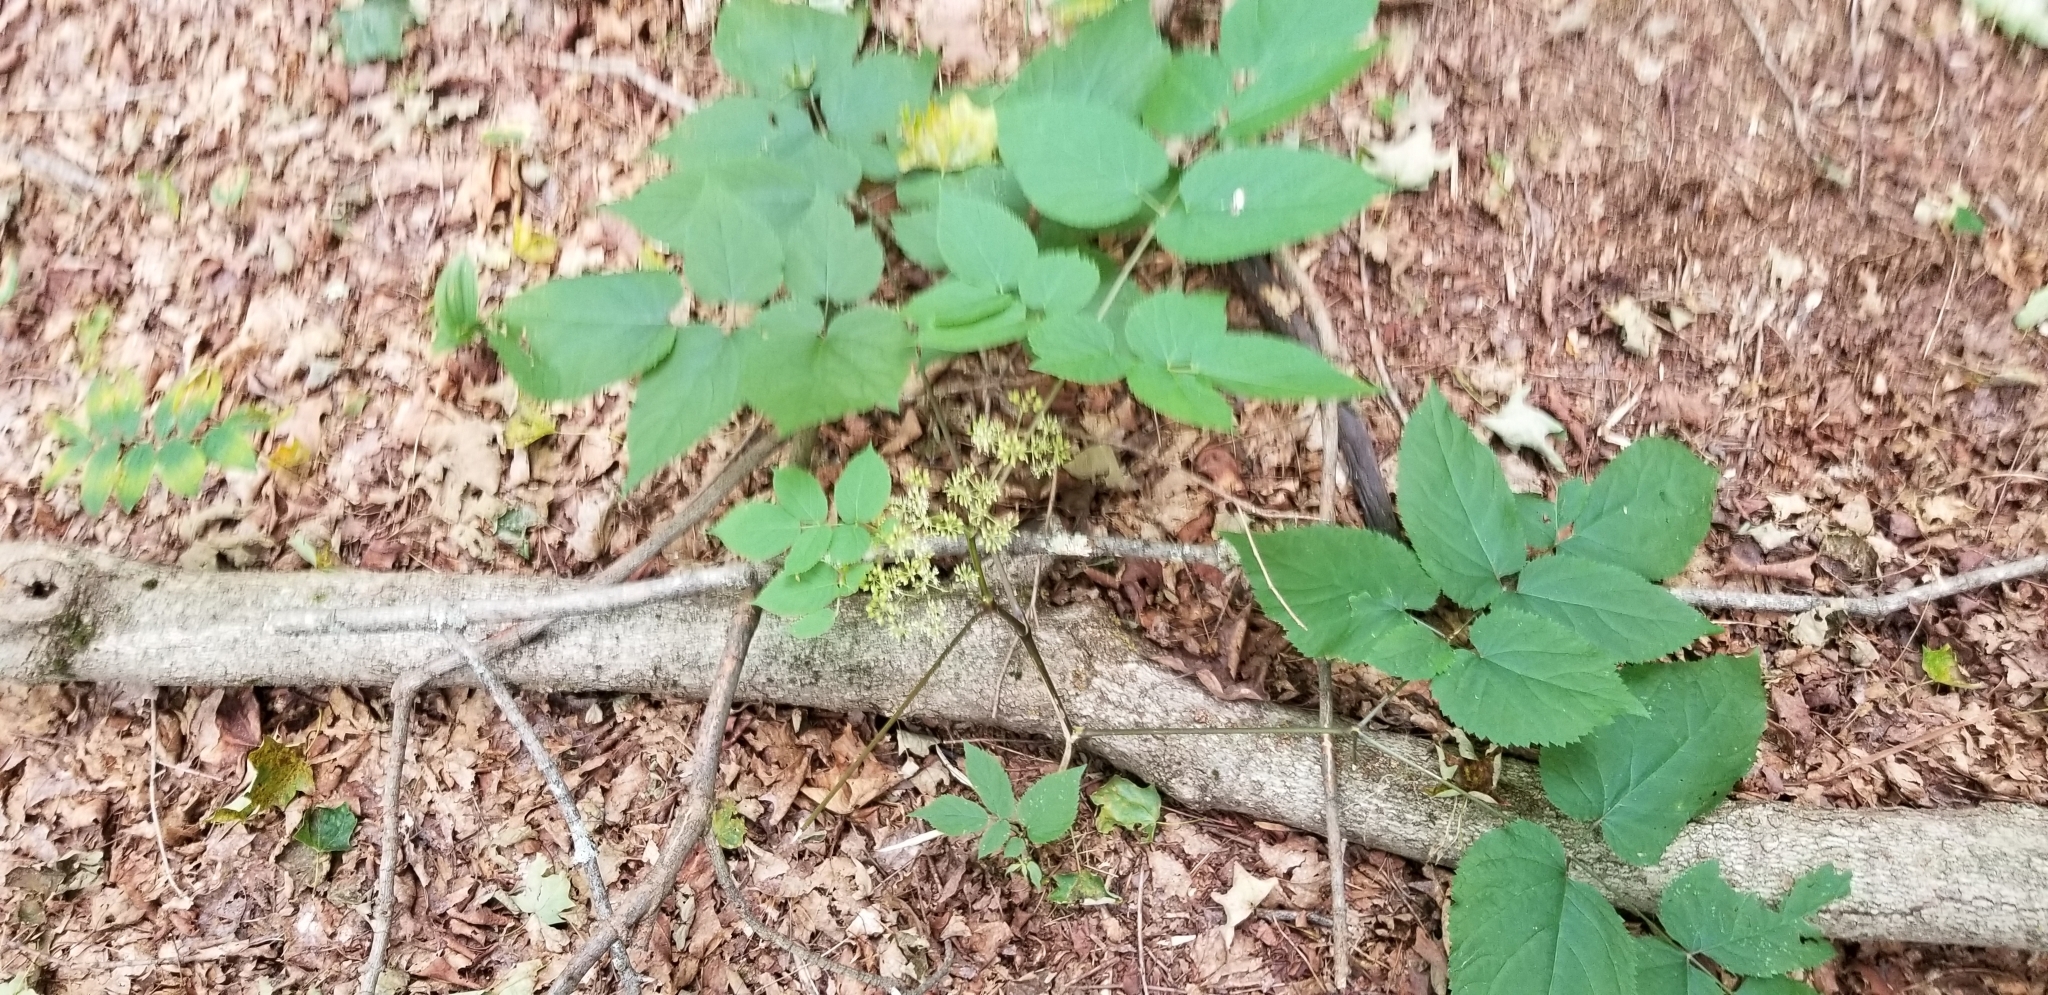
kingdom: Plantae
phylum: Tracheophyta
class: Magnoliopsida
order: Apiales
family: Araliaceae
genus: Aralia
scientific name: Aralia racemosa
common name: American-spikenard
